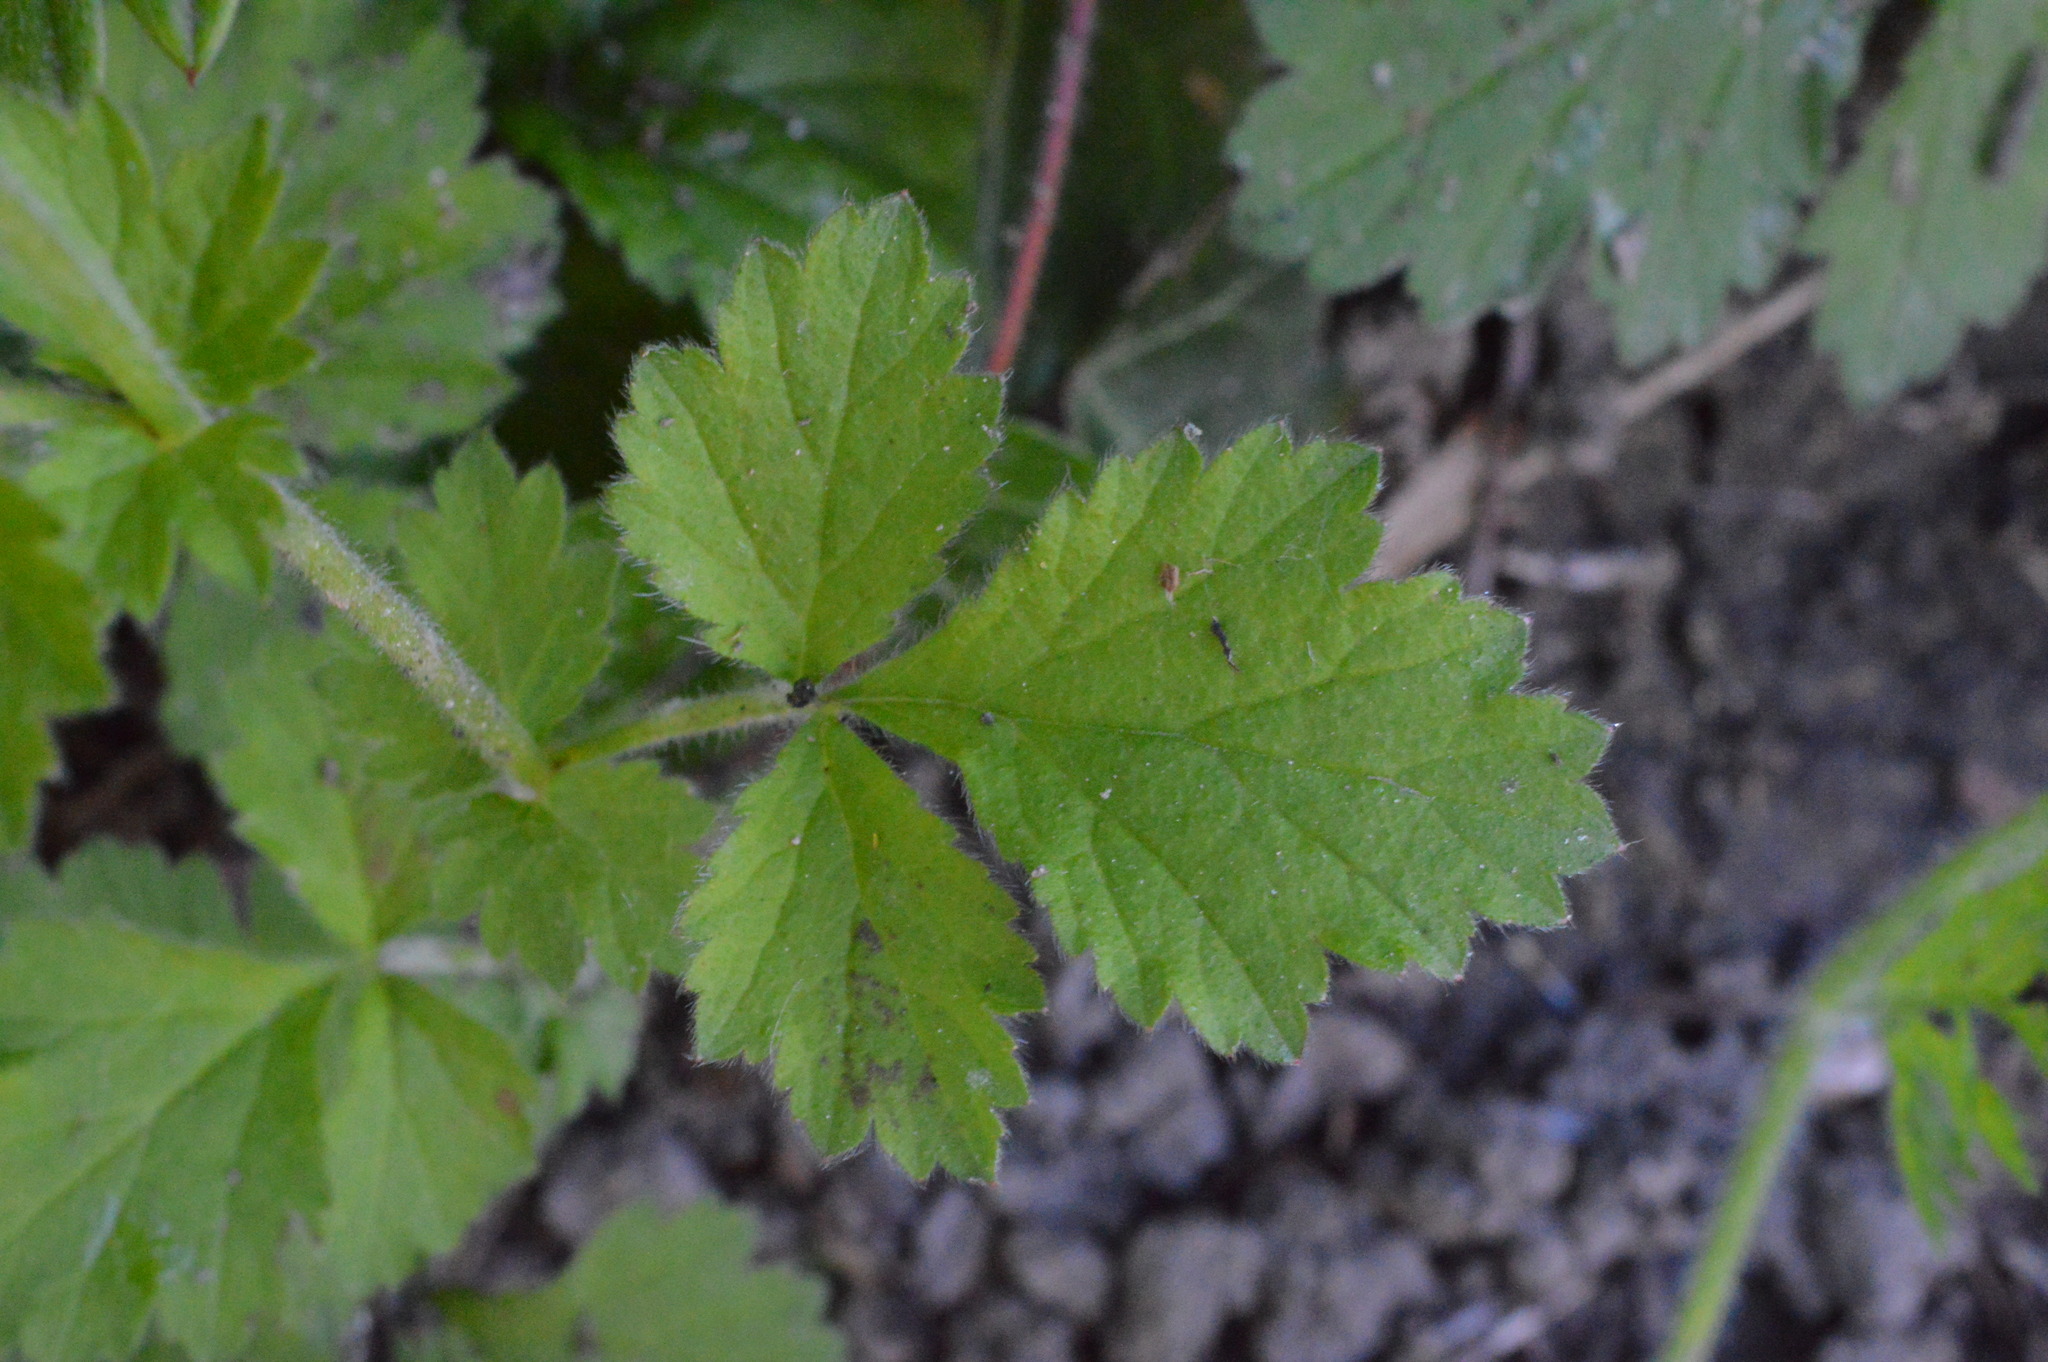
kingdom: Plantae
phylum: Tracheophyta
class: Magnoliopsida
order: Rosales
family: Rosaceae
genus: Geum
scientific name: Geum urbanum
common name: Wood avens
